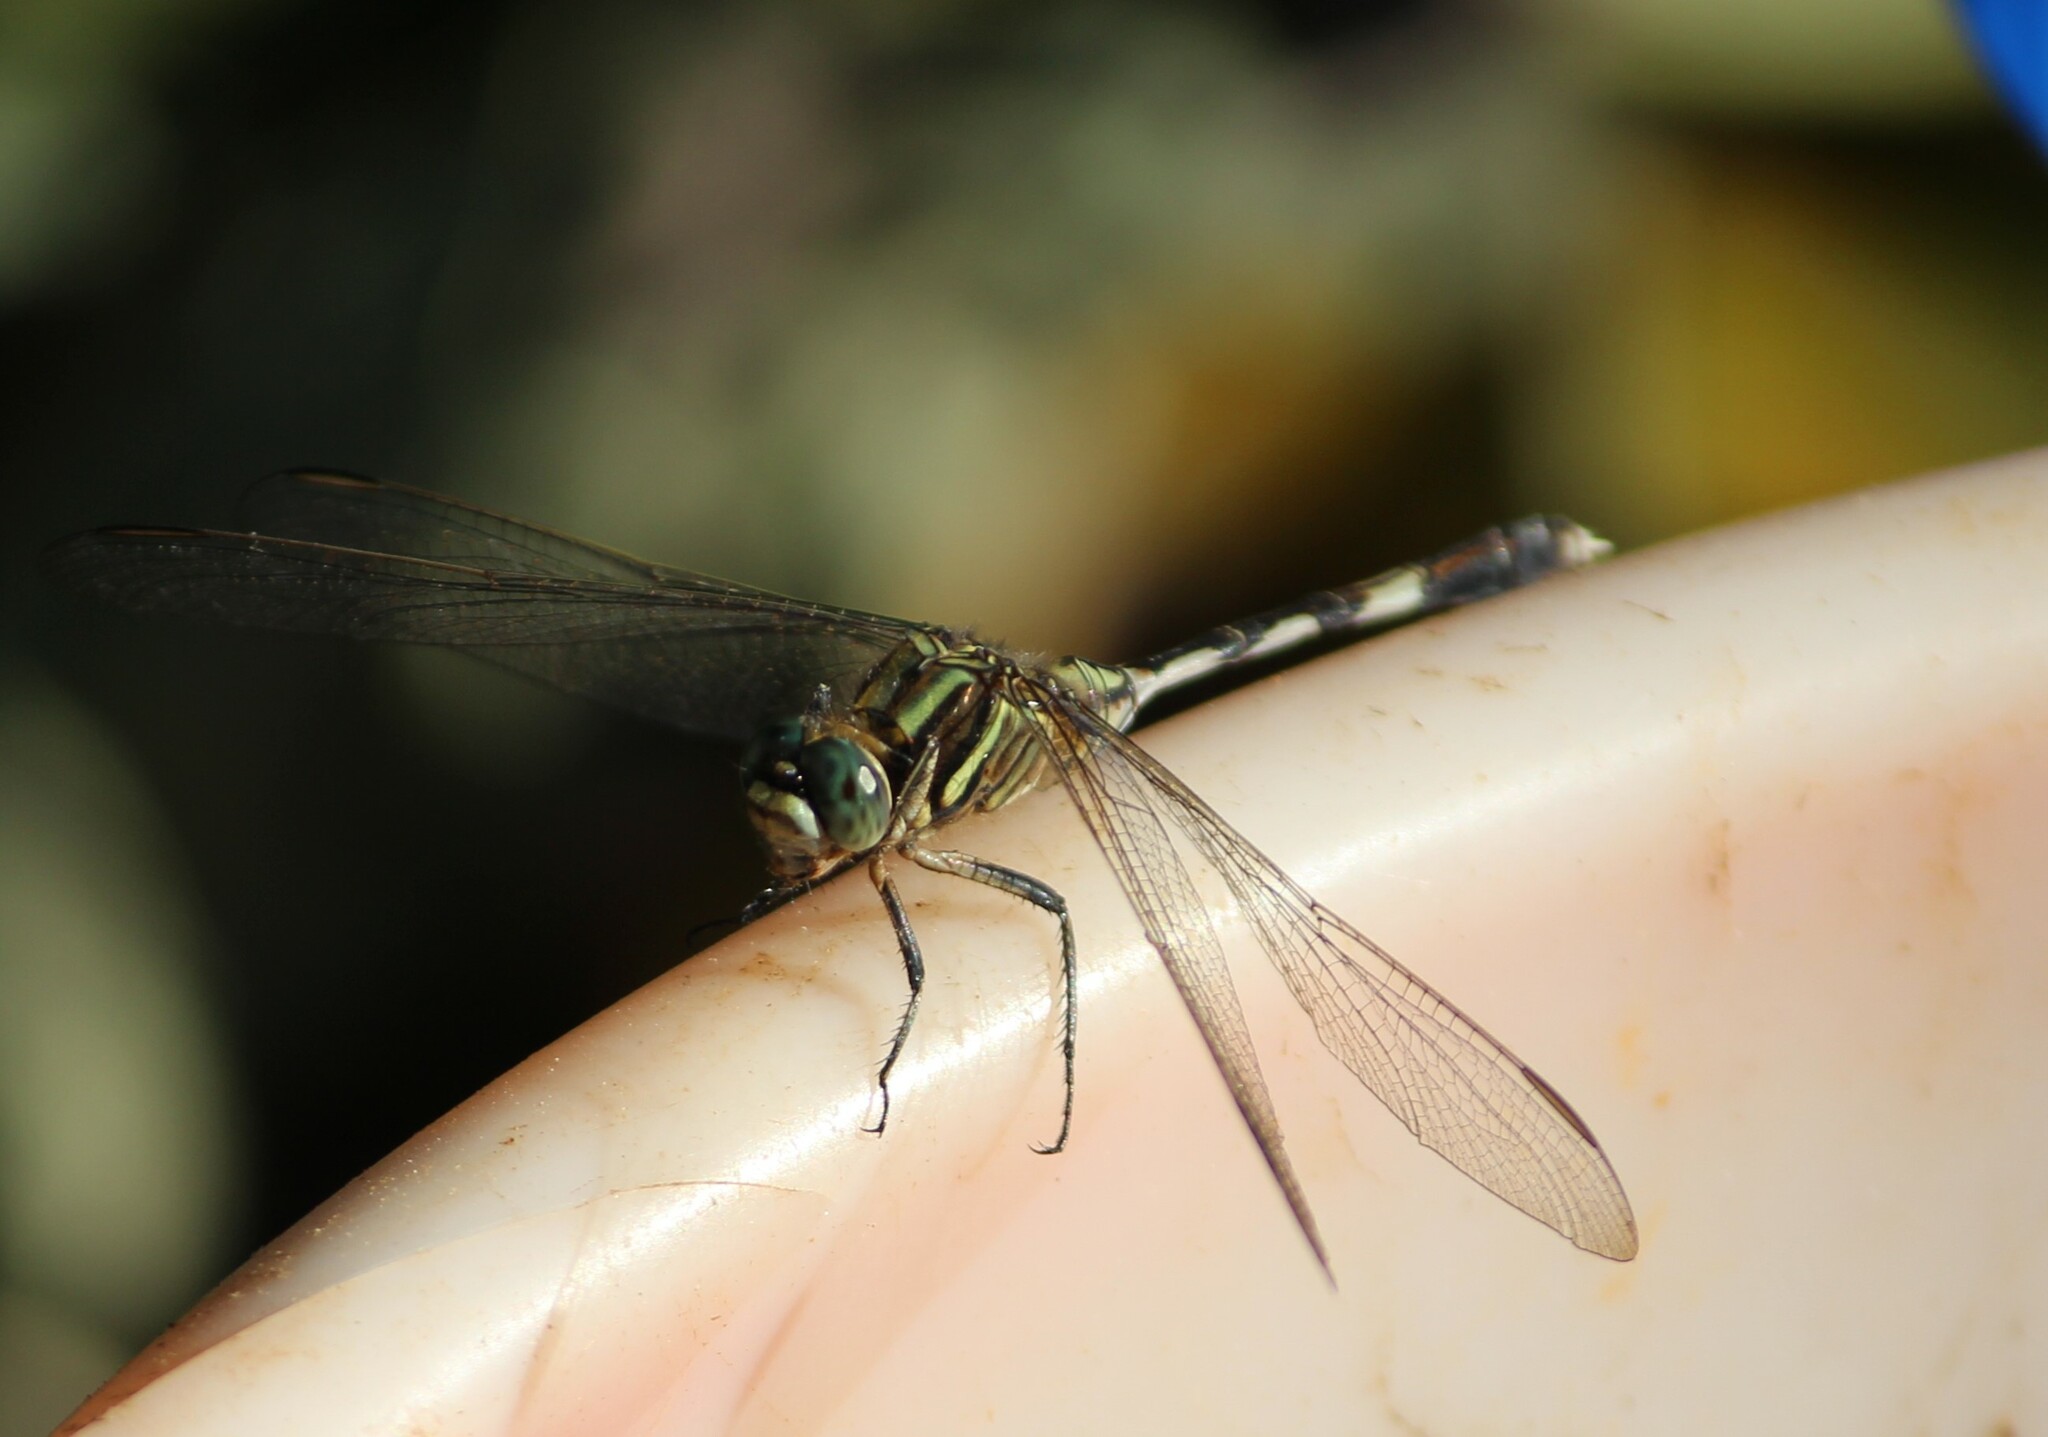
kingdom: Animalia
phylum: Arthropoda
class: Insecta
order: Odonata
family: Libellulidae
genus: Orthetrum
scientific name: Orthetrum sabina
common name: Slender skimmer
